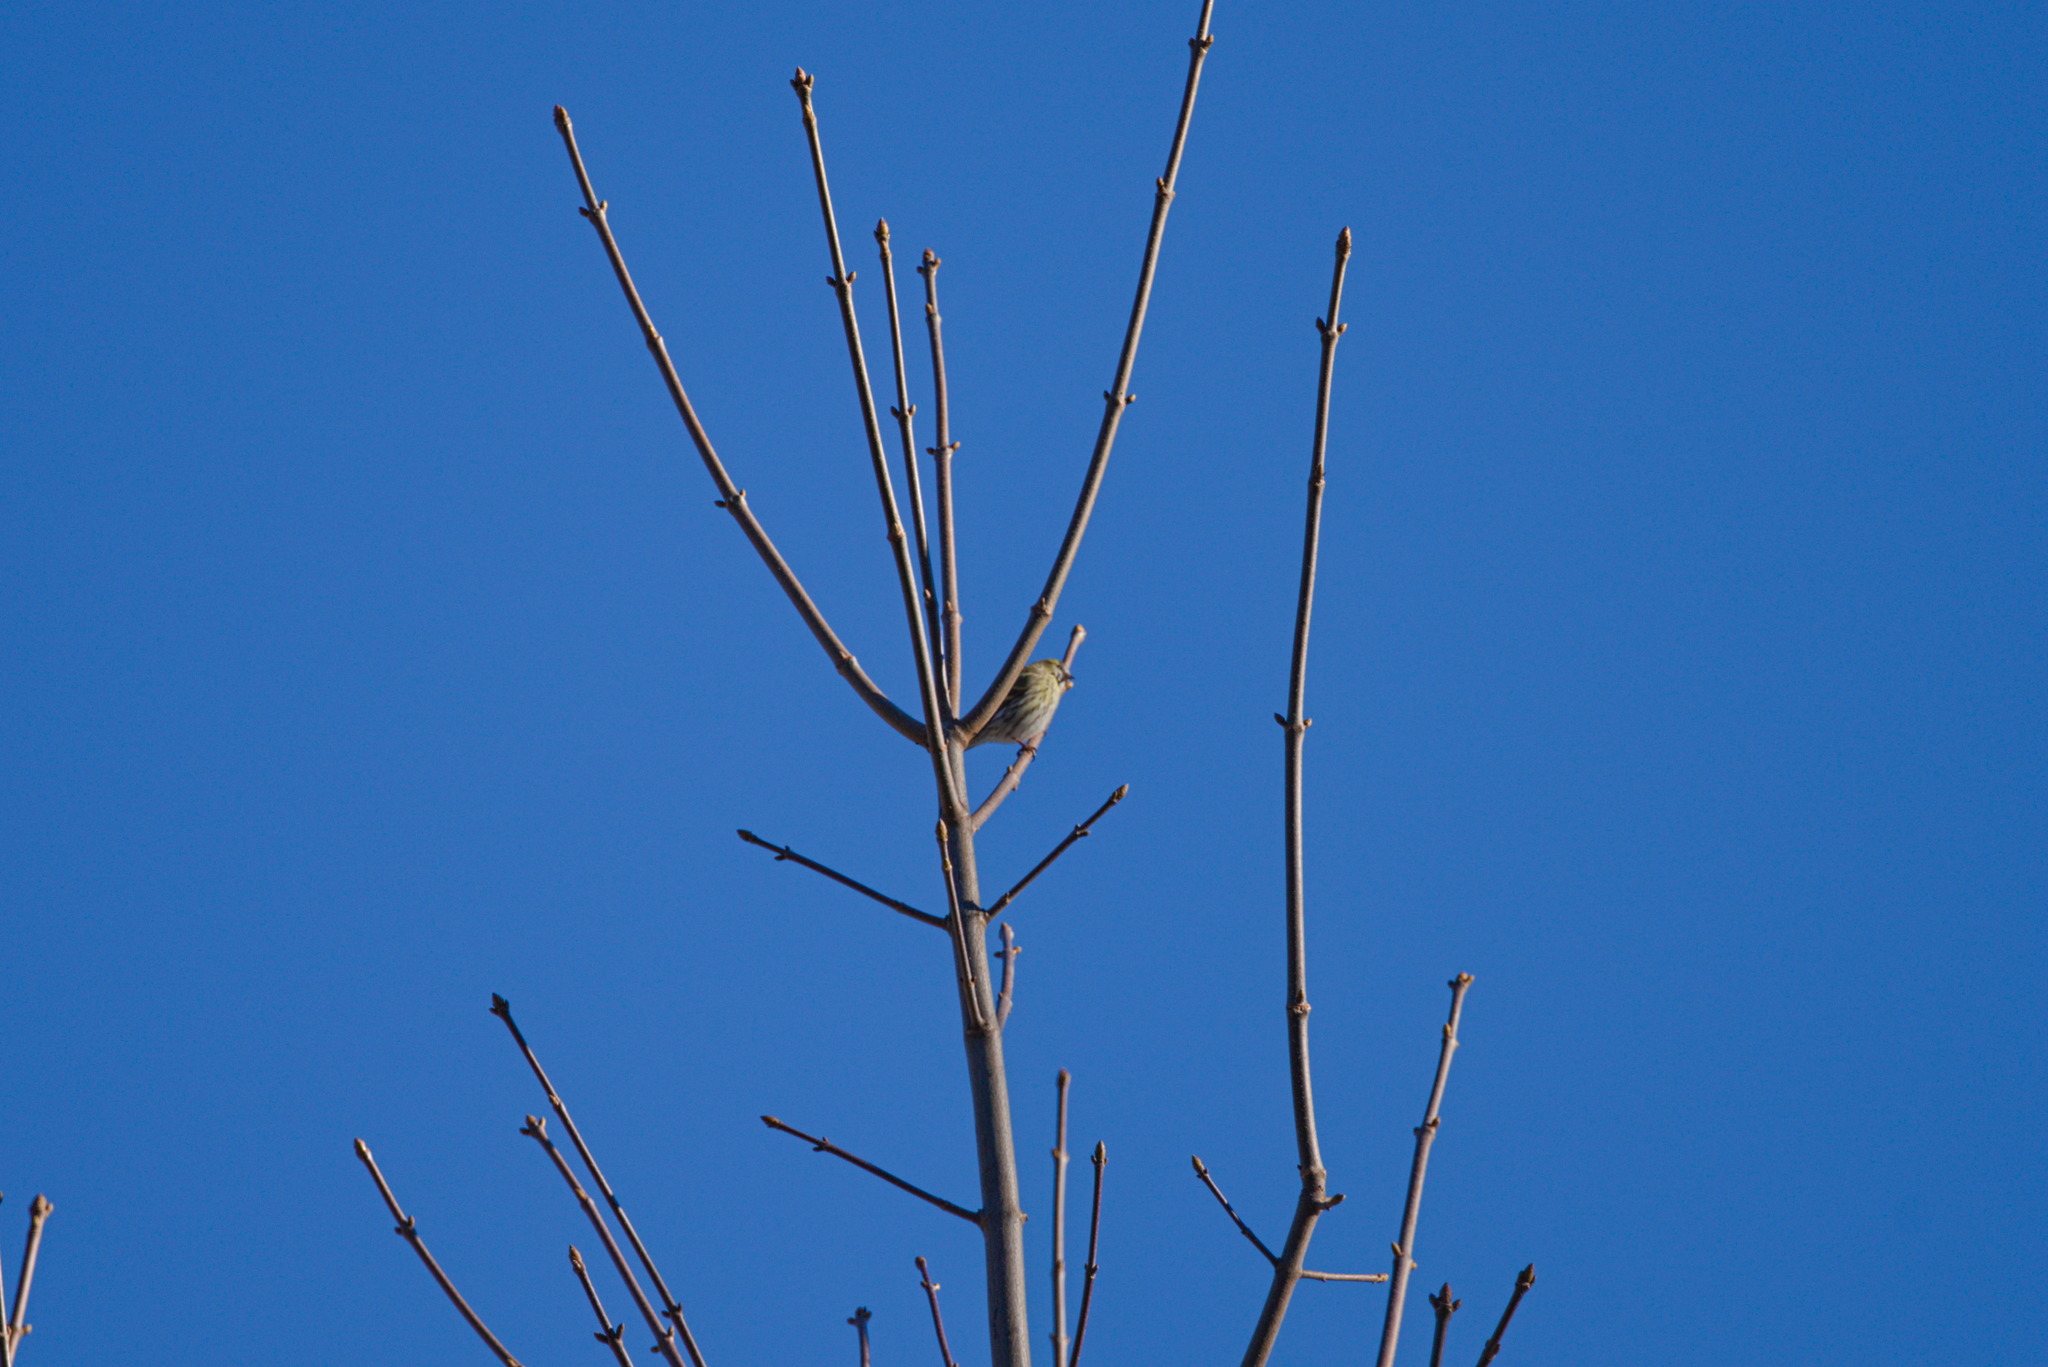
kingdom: Animalia
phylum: Chordata
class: Aves
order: Passeriformes
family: Fringillidae
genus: Spinus
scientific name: Spinus spinus
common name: Eurasian siskin
